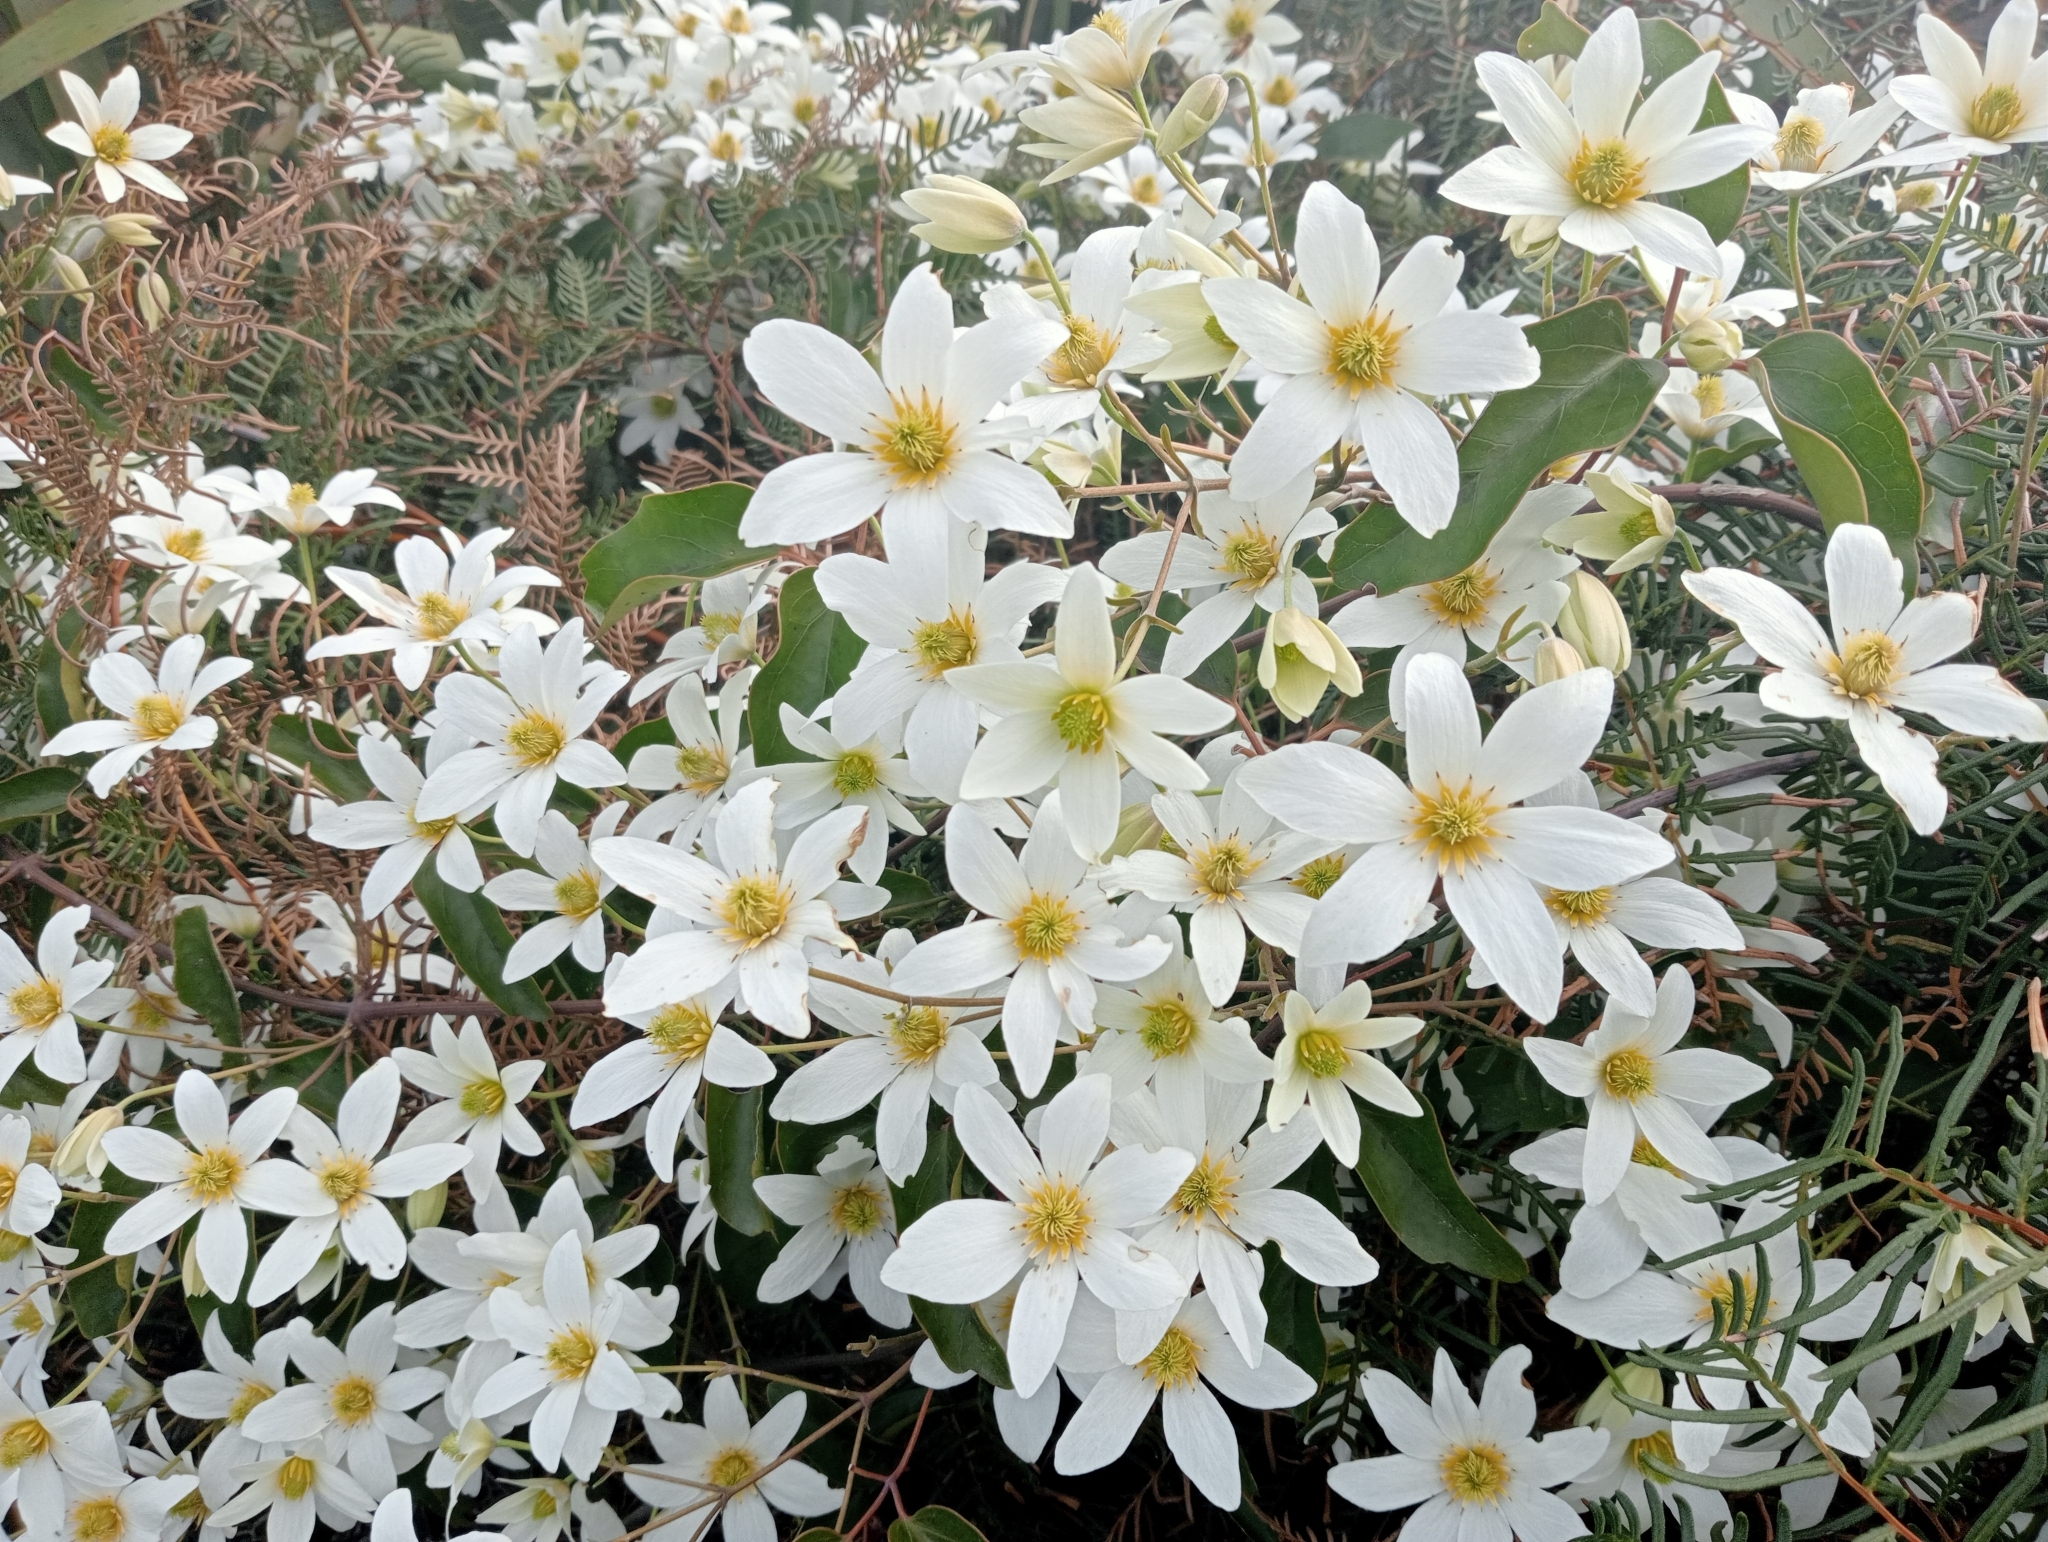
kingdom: Plantae
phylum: Tracheophyta
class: Magnoliopsida
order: Ranunculales
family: Ranunculaceae
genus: Clematis
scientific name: Clematis paniculata
